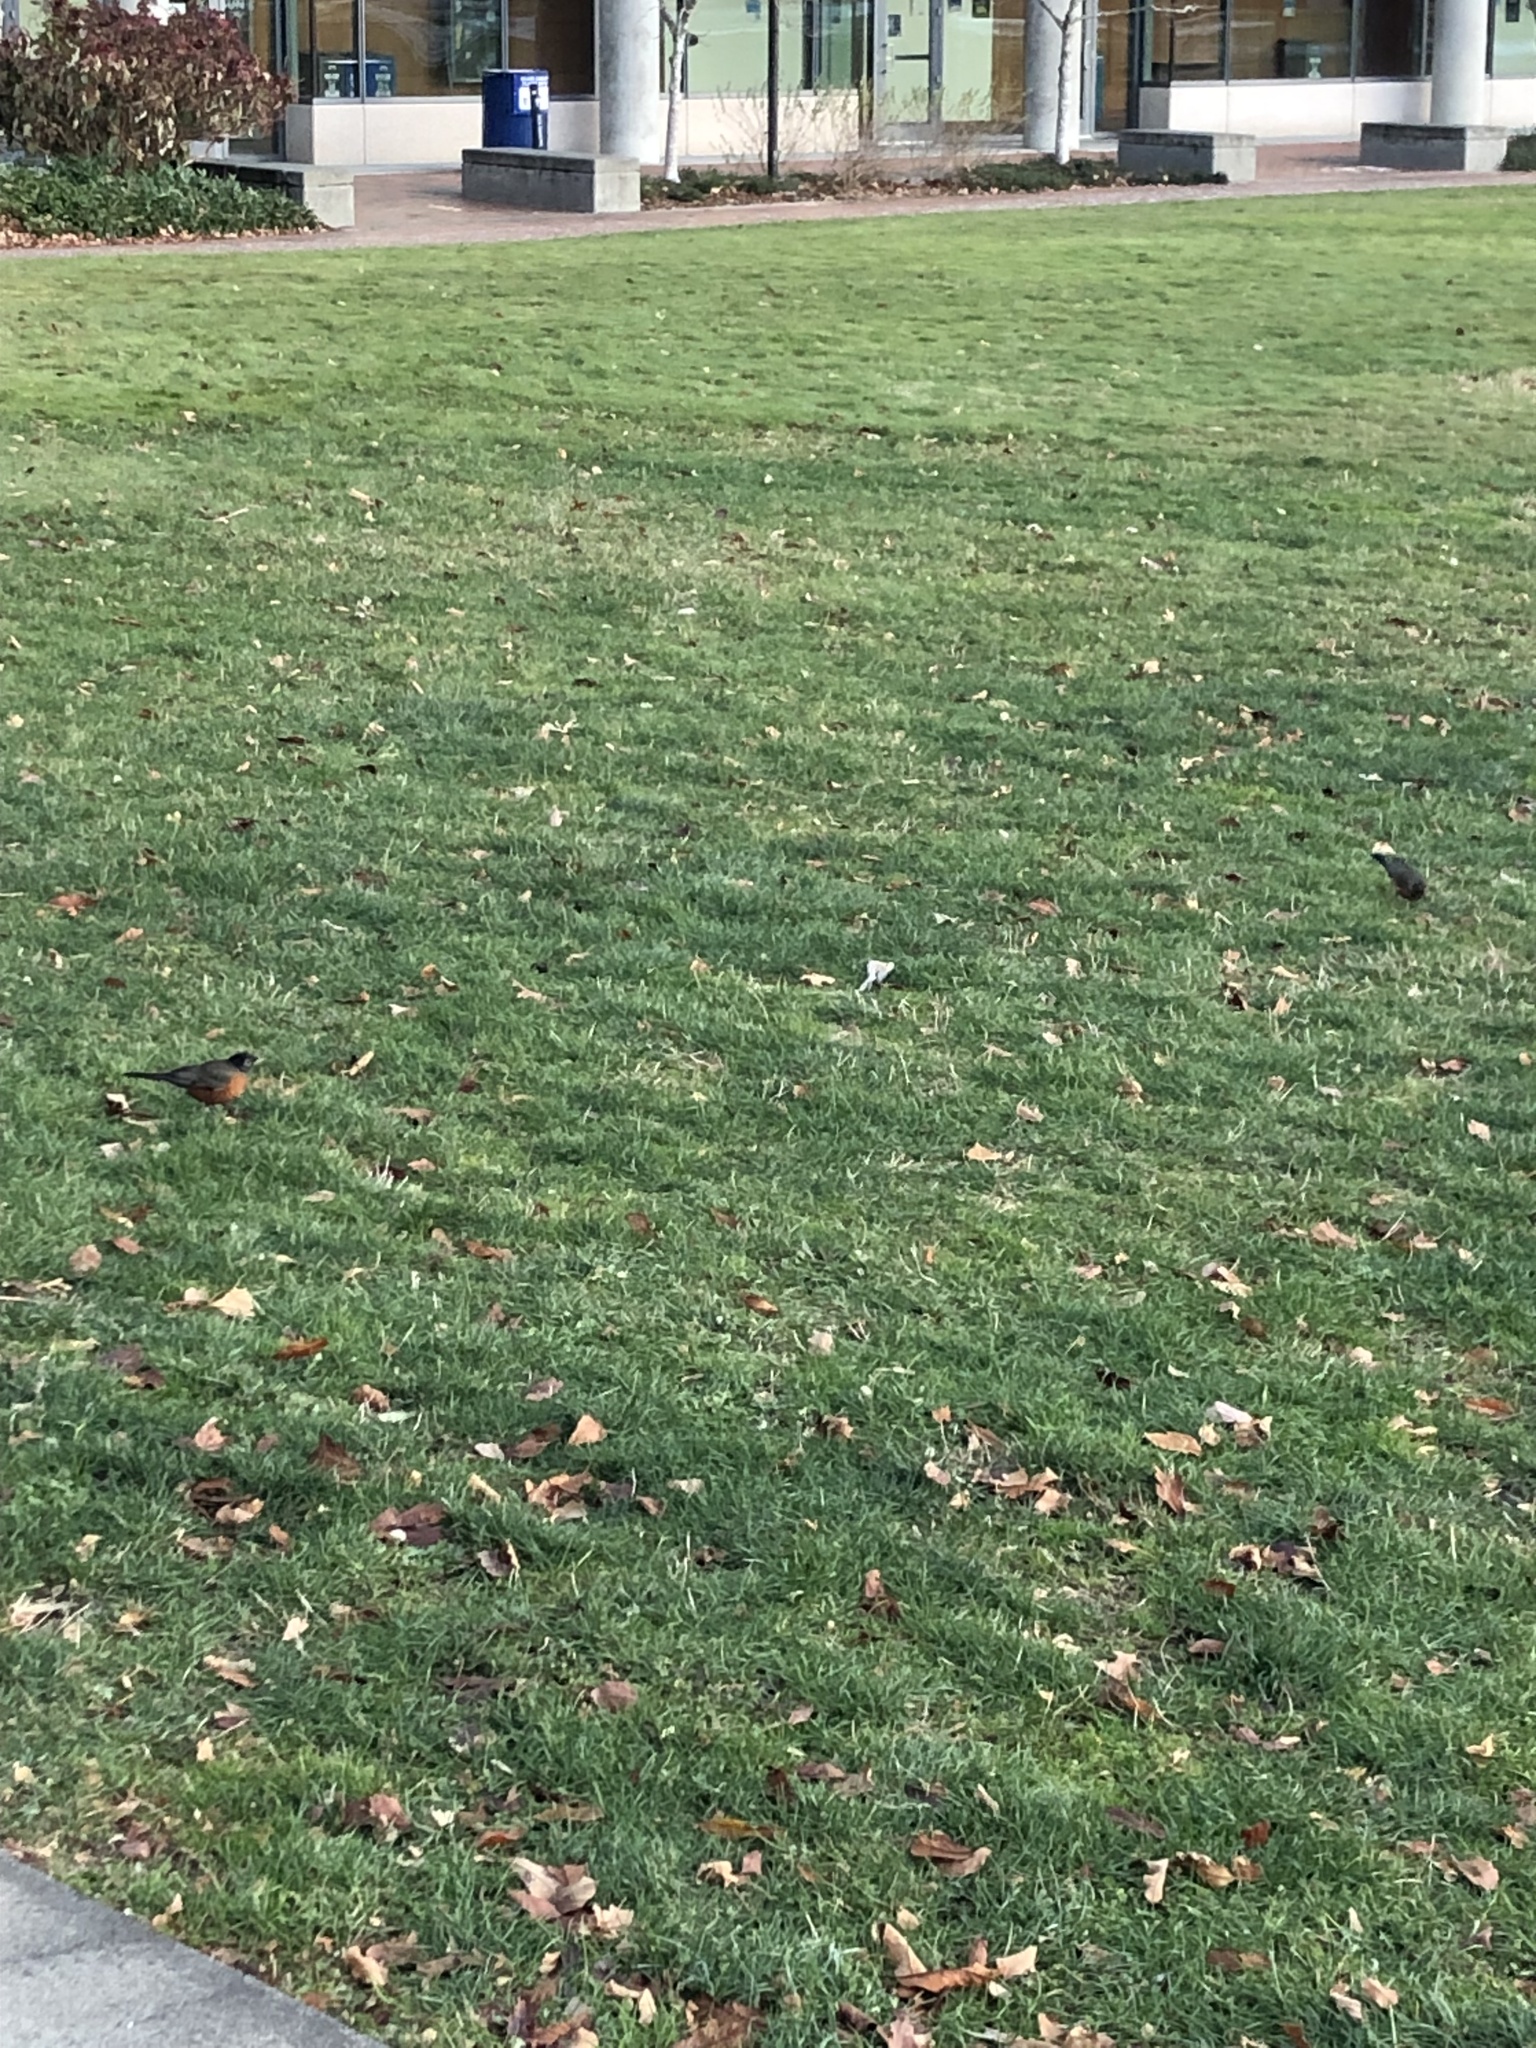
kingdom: Animalia
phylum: Chordata
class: Aves
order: Passeriformes
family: Turdidae
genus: Turdus
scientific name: Turdus migratorius
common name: American robin
